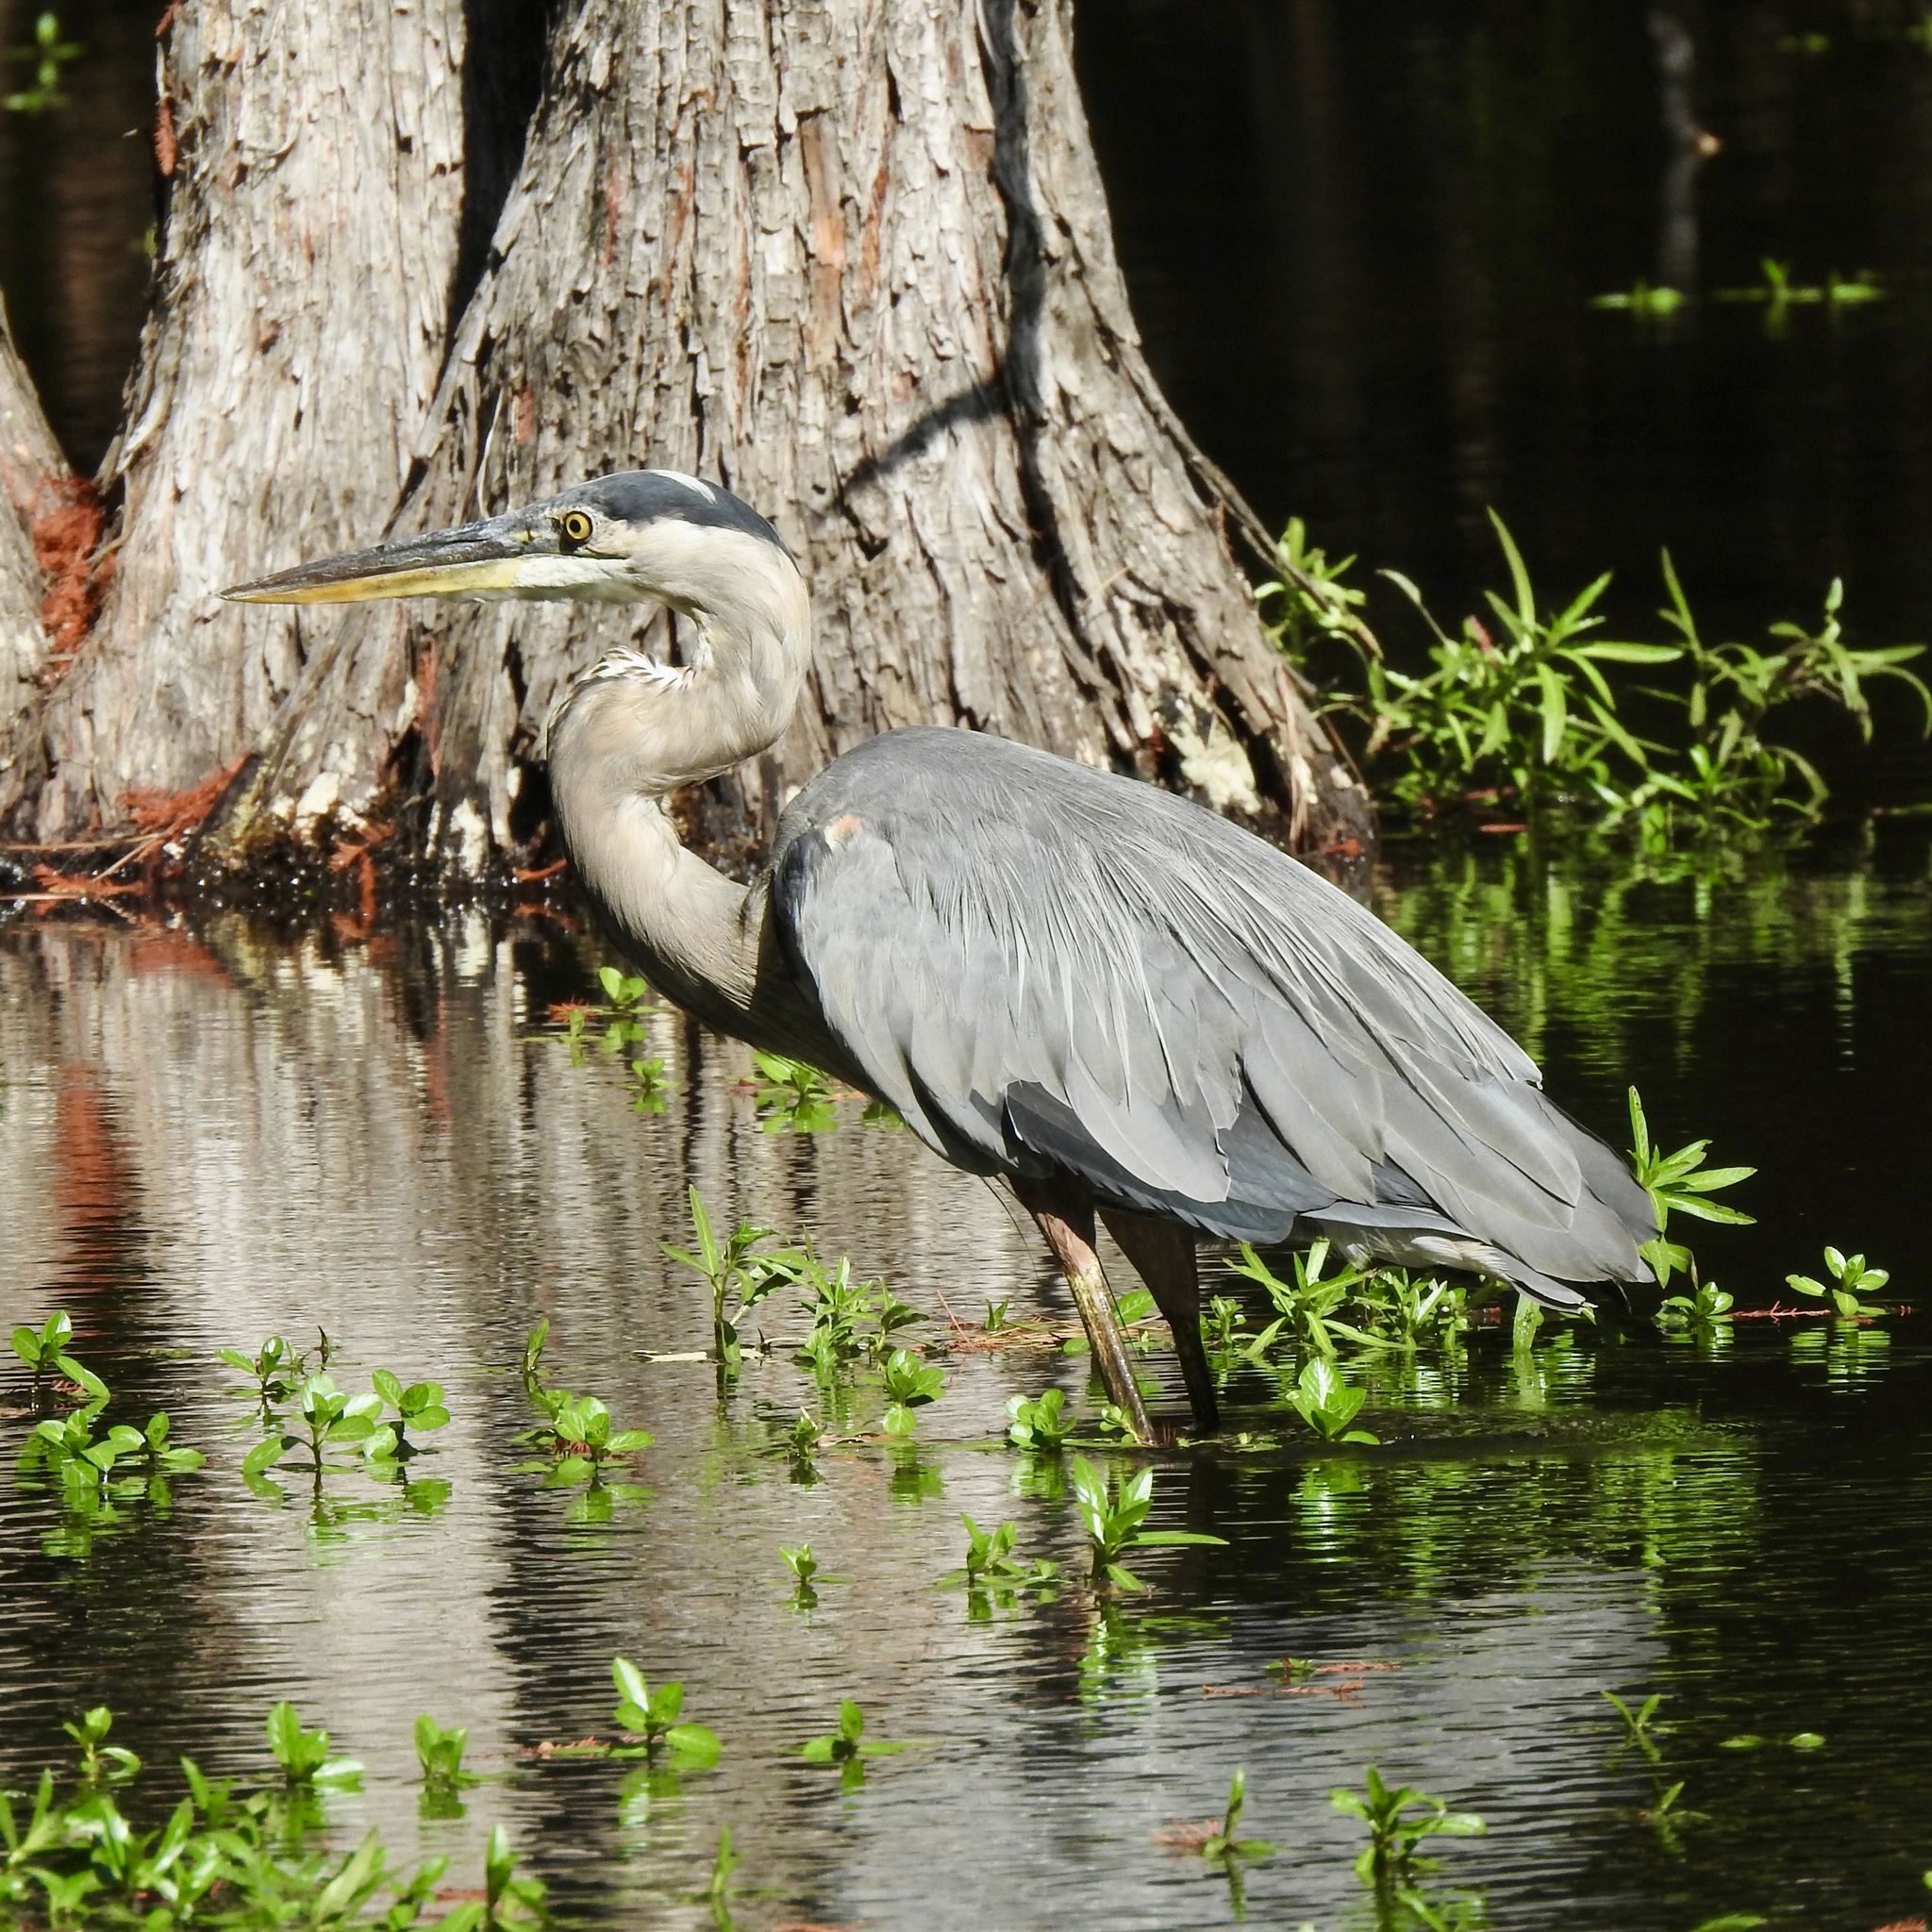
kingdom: Animalia
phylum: Chordata
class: Aves
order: Pelecaniformes
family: Ardeidae
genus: Ardea
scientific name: Ardea herodias
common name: Great blue heron
